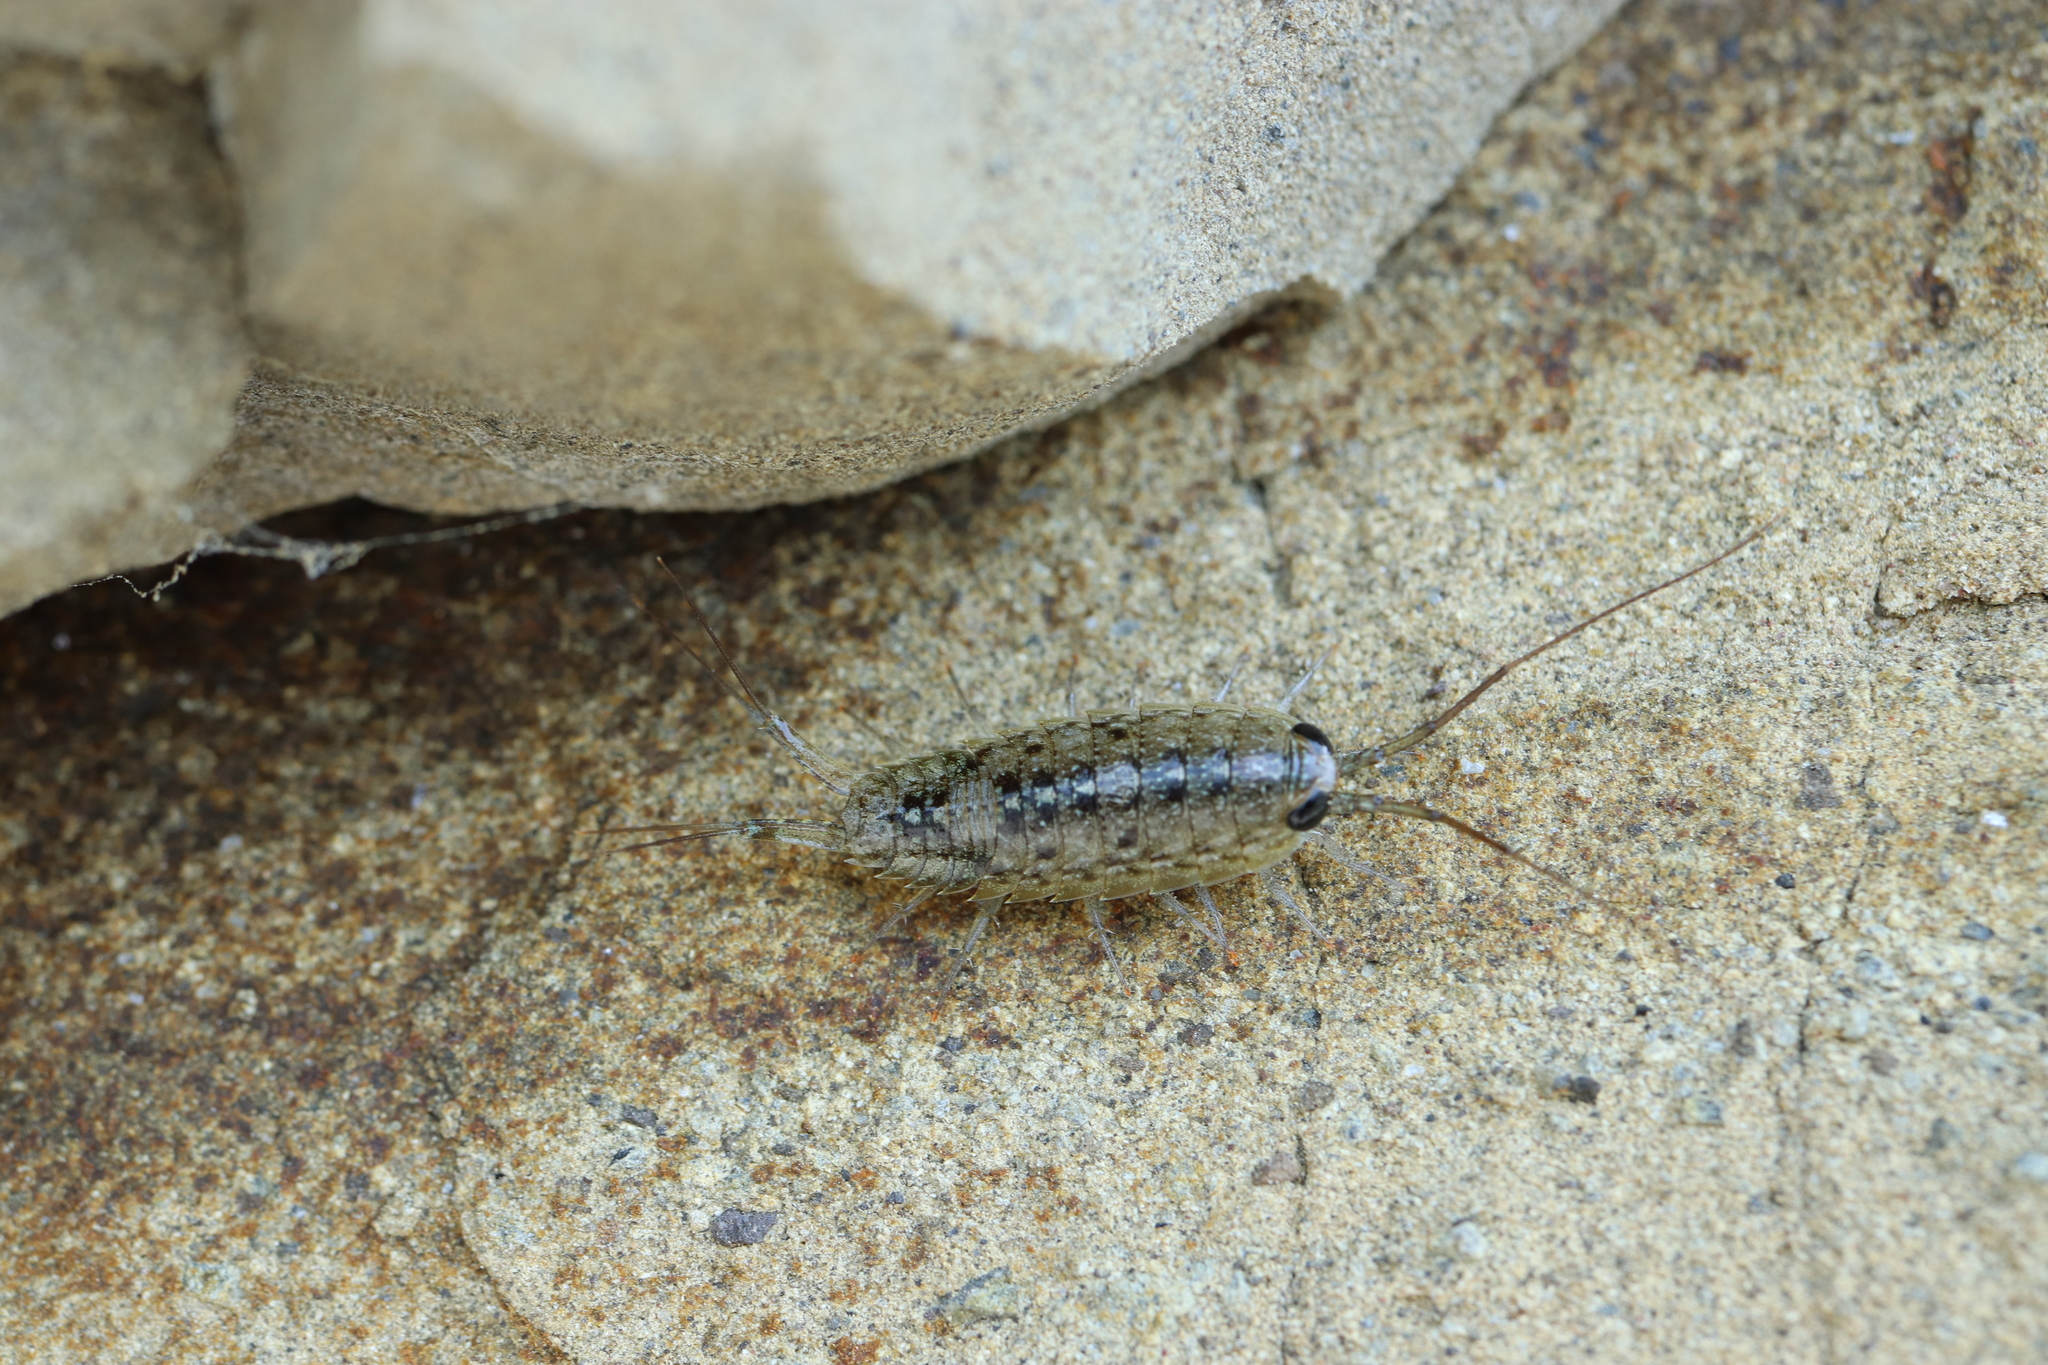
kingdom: Animalia
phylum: Arthropoda
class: Malacostraca
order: Isopoda
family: Ligiidae
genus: Ligia
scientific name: Ligia exotica
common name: Wharf roach
